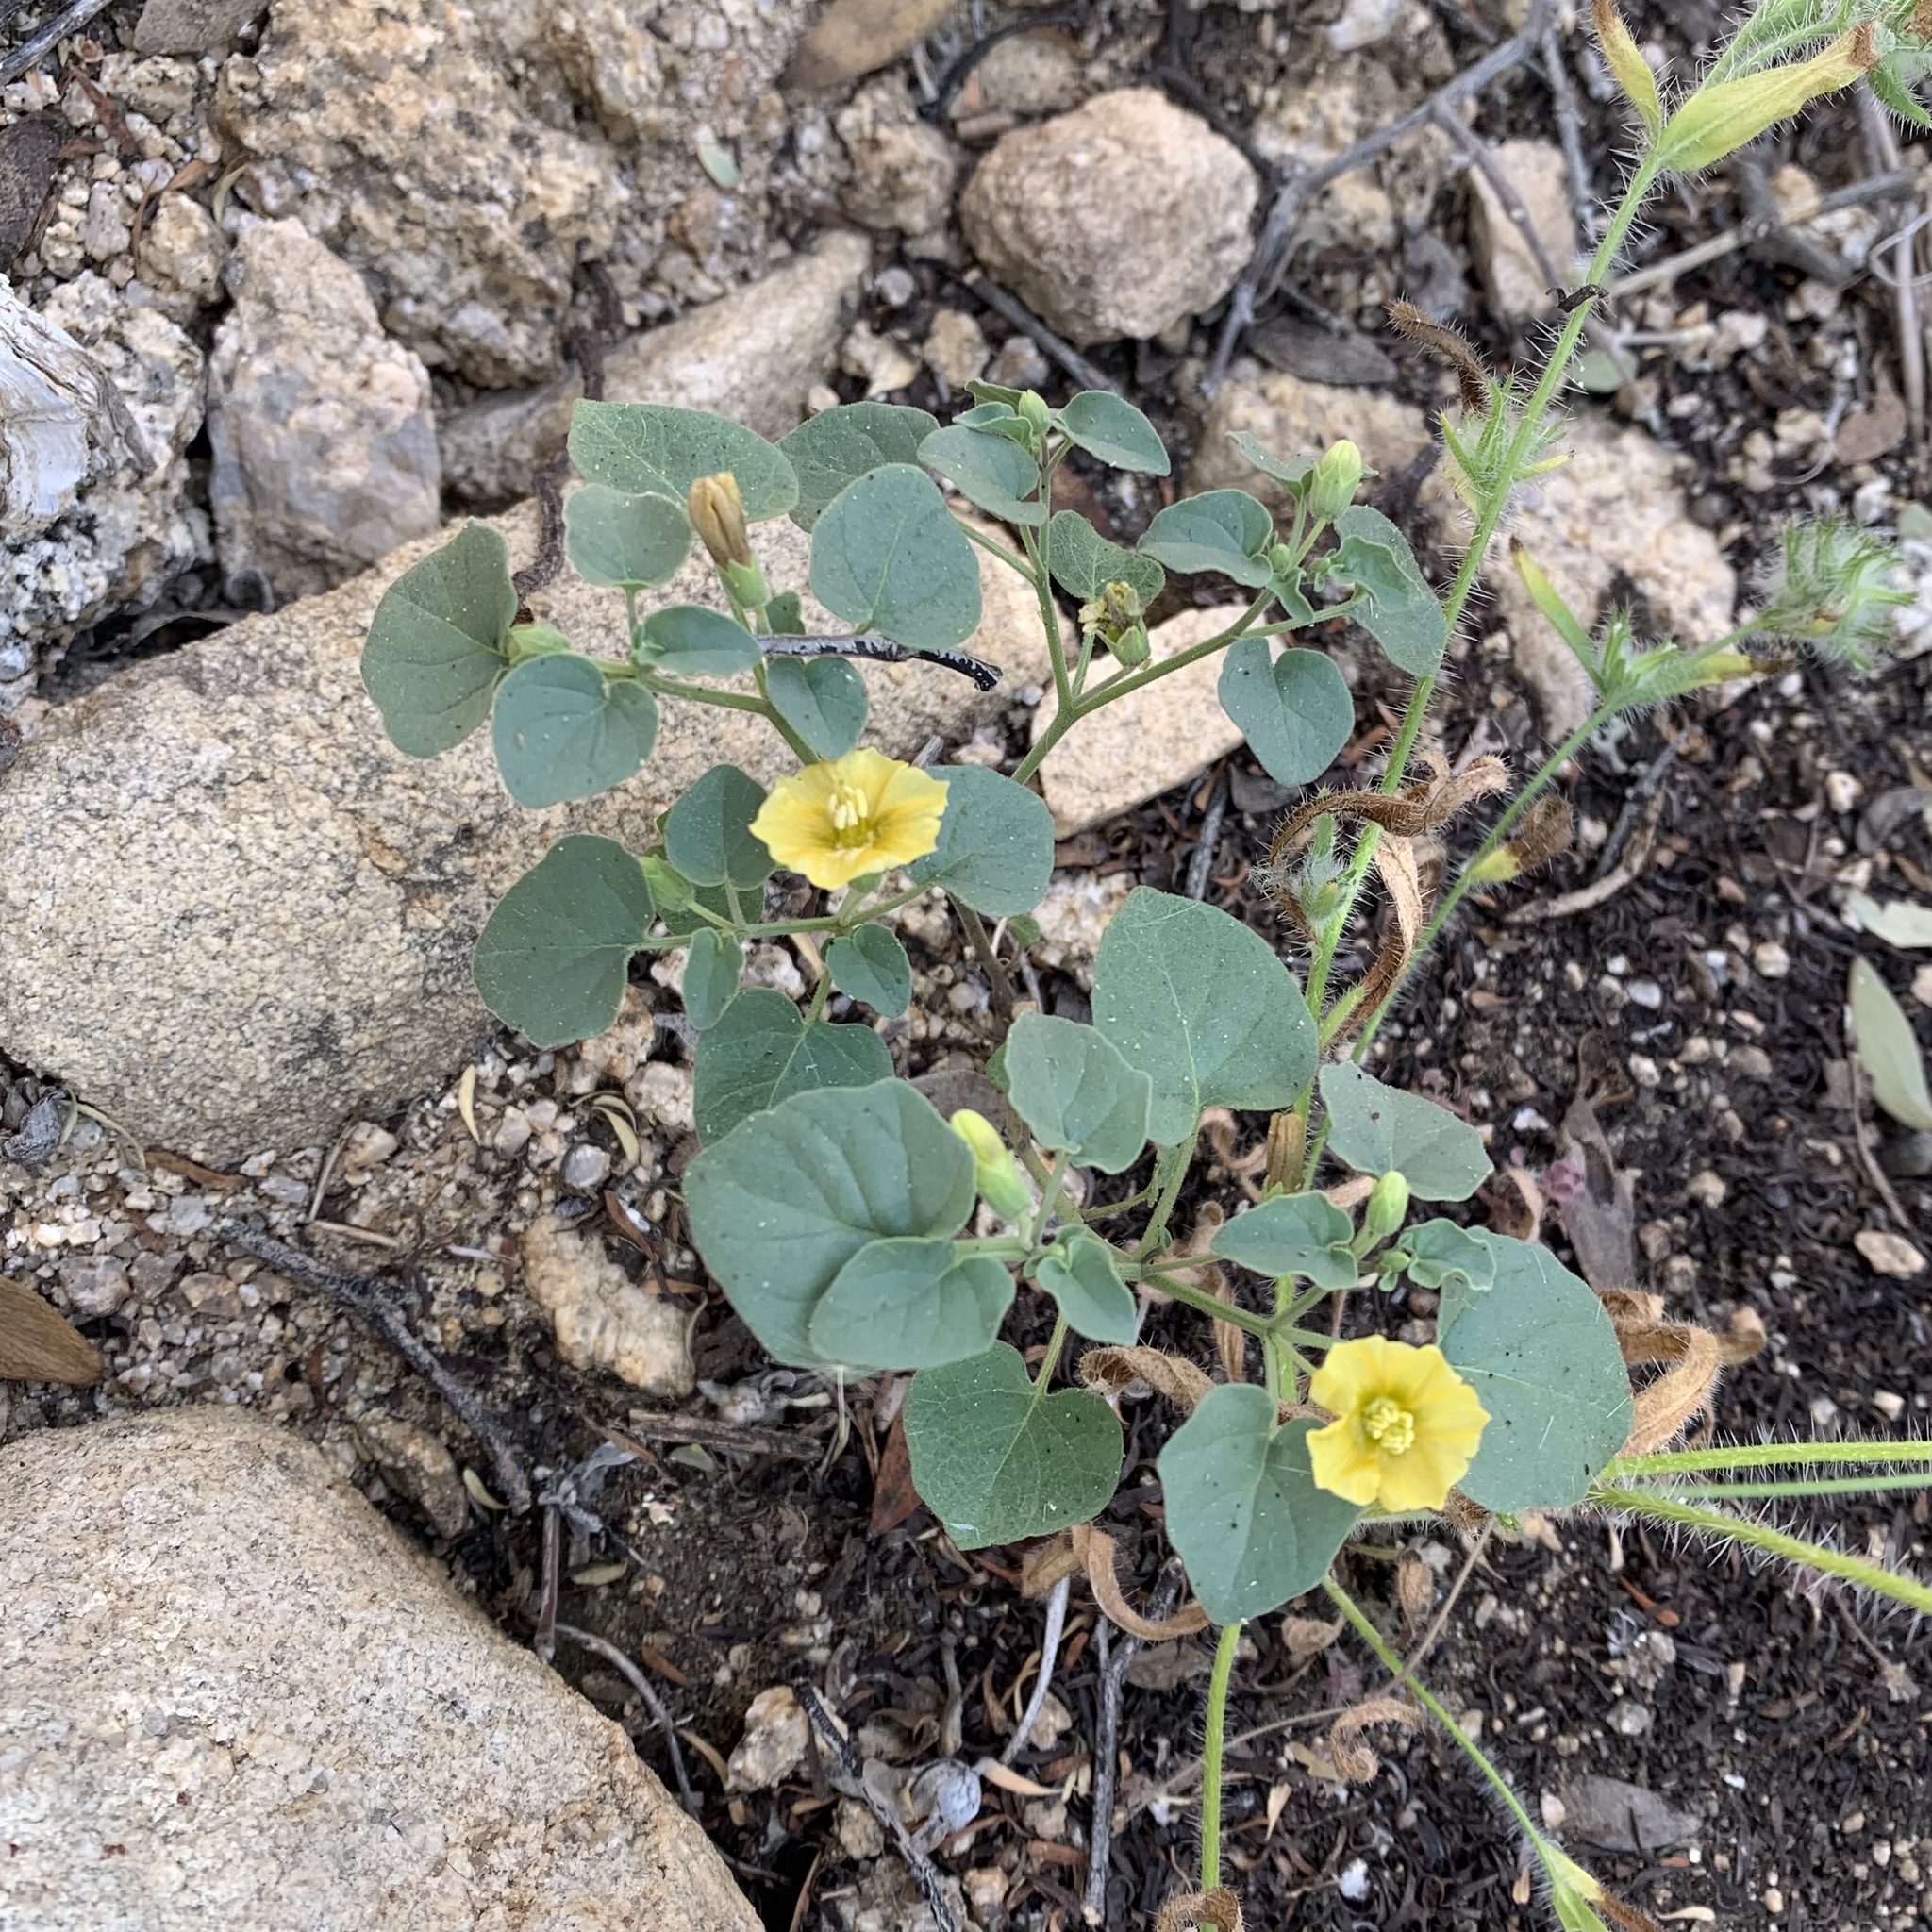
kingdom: Plantae
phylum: Tracheophyta
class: Magnoliopsida
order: Solanales
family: Solanaceae
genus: Physalis
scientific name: Physalis crassifolia
